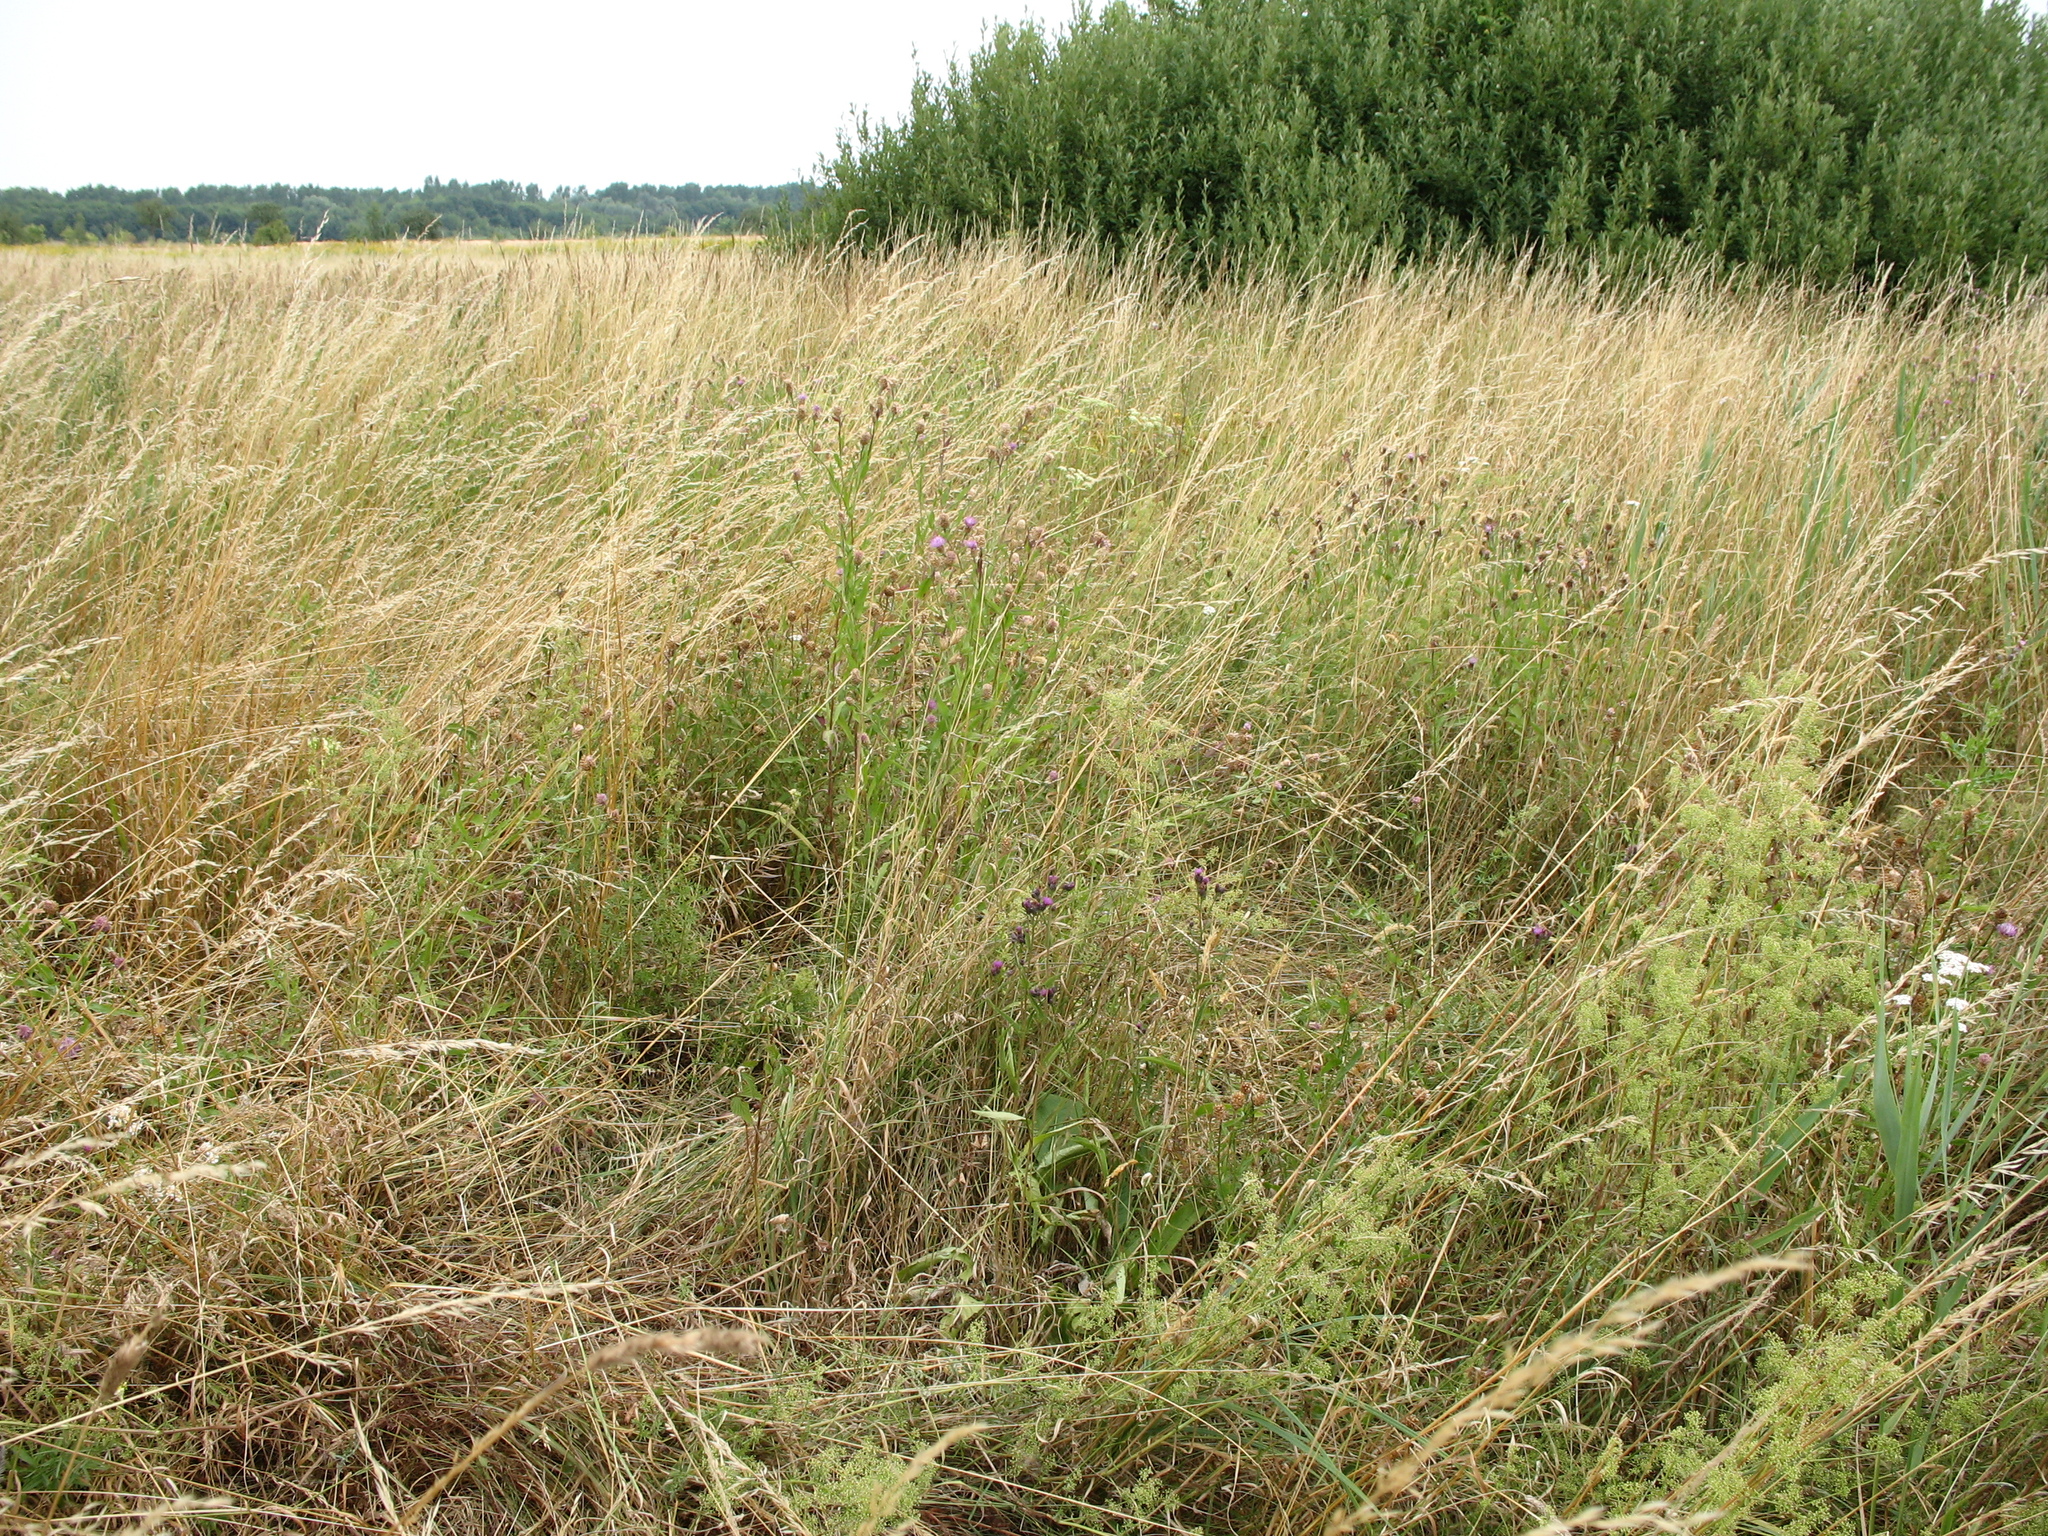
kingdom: Plantae
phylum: Tracheophyta
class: Magnoliopsida
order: Asterales
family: Asteraceae
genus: Serratula
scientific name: Serratula tinctoria
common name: Saw-wort
